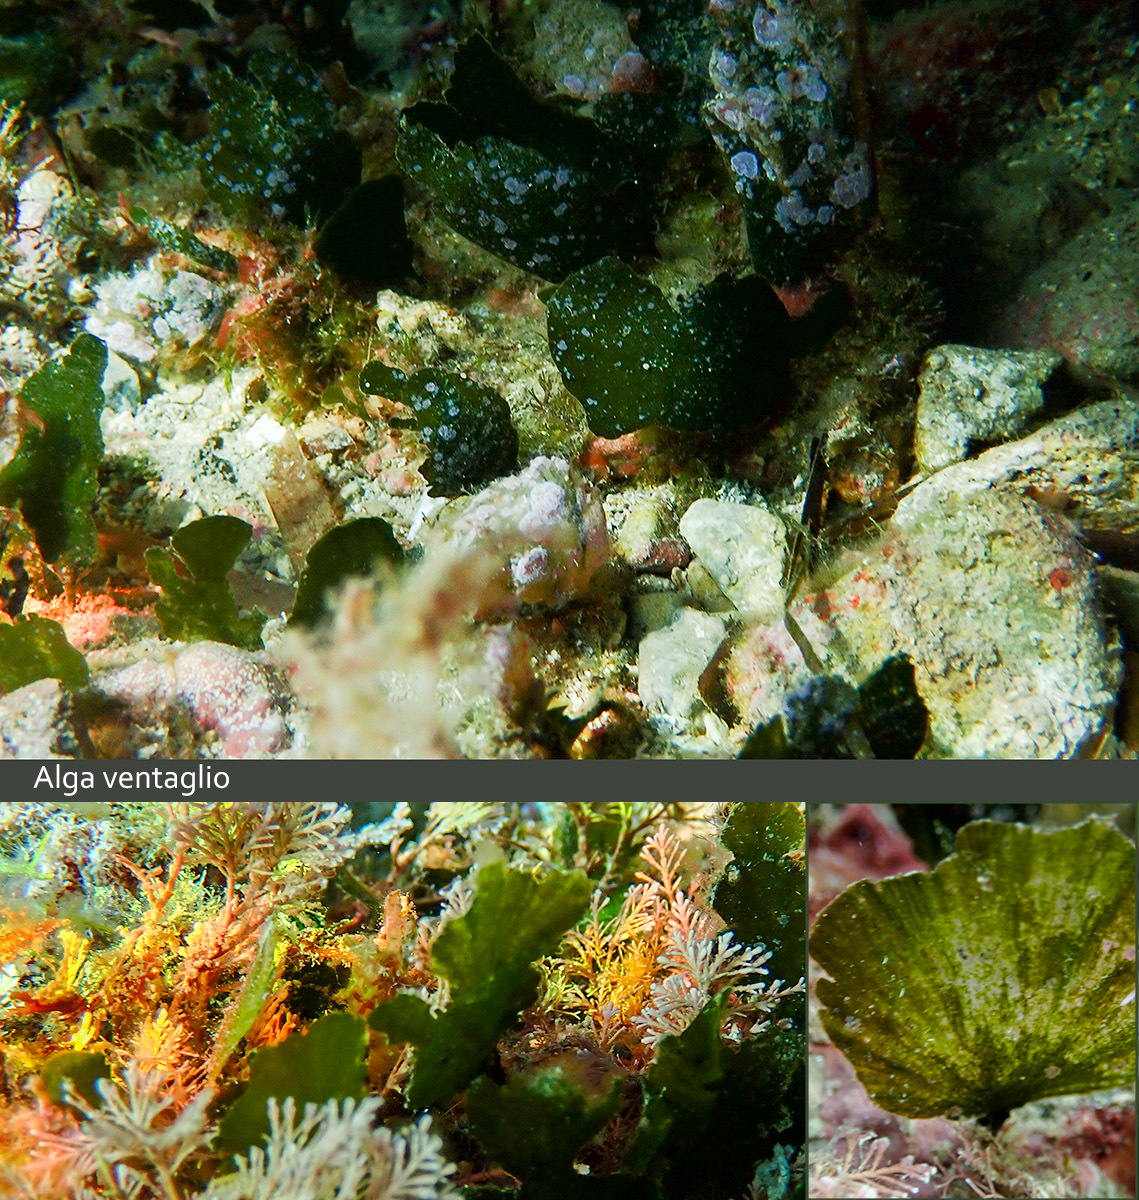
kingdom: Plantae
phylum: Chlorophyta
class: Ulvophyceae
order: Bryopsidales
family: Codiaceae
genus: Codium
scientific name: Codium Flabellia petiolata
